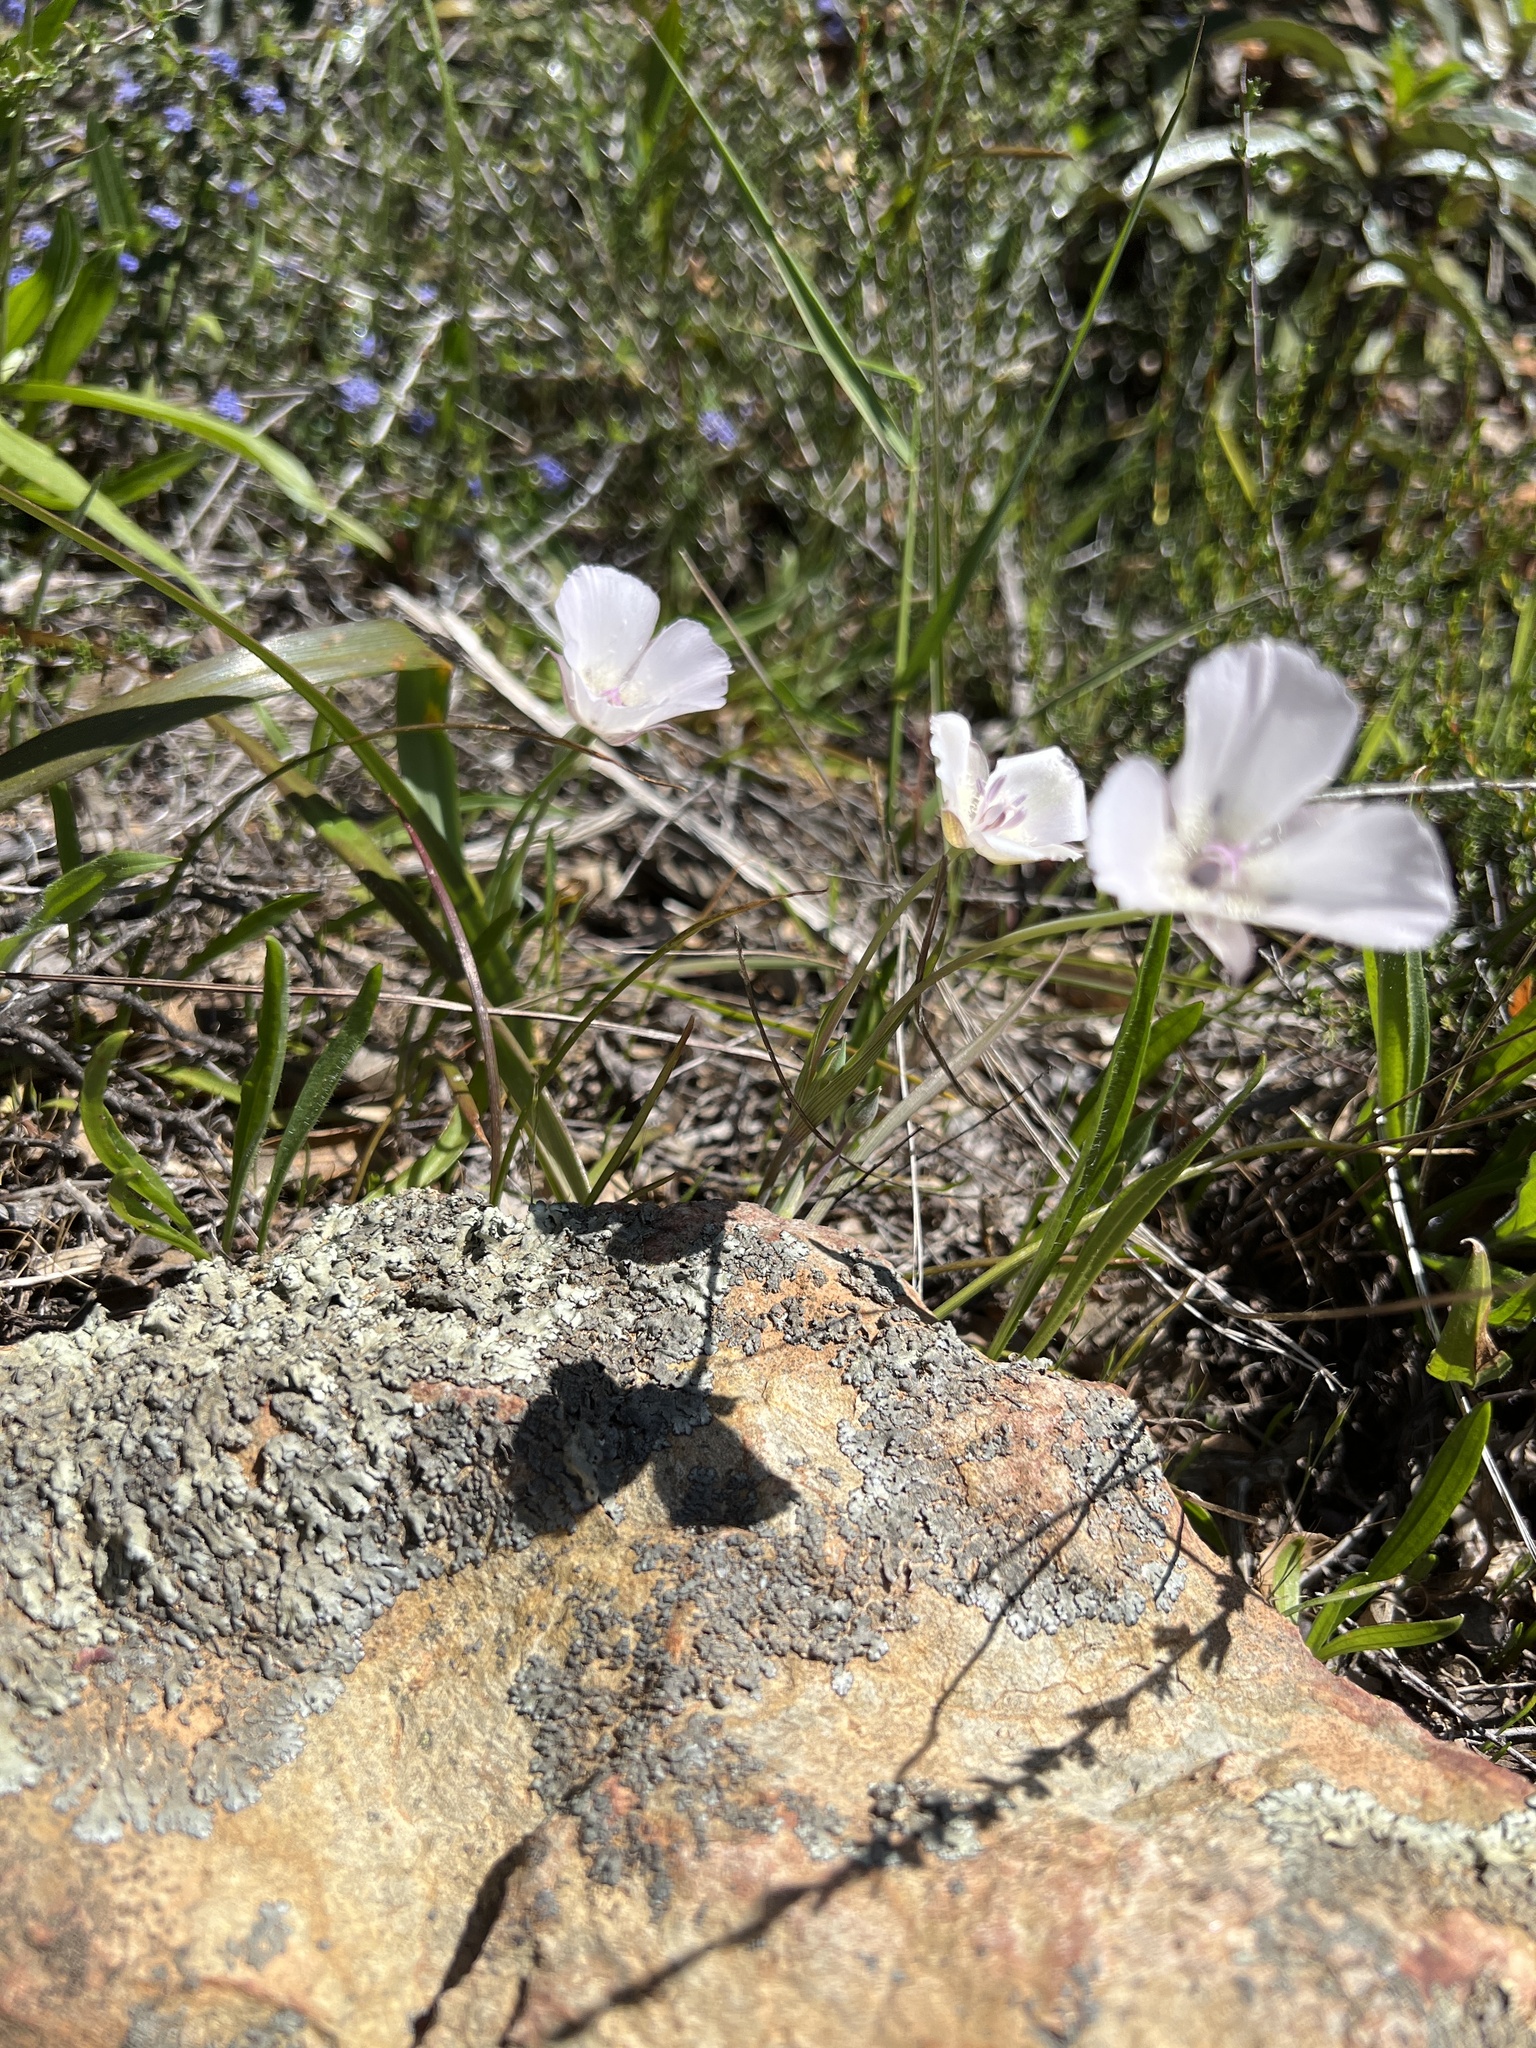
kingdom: Plantae
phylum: Tracheophyta
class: Liliopsida
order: Liliales
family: Liliaceae
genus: Calochortus
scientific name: Calochortus umbellatus
